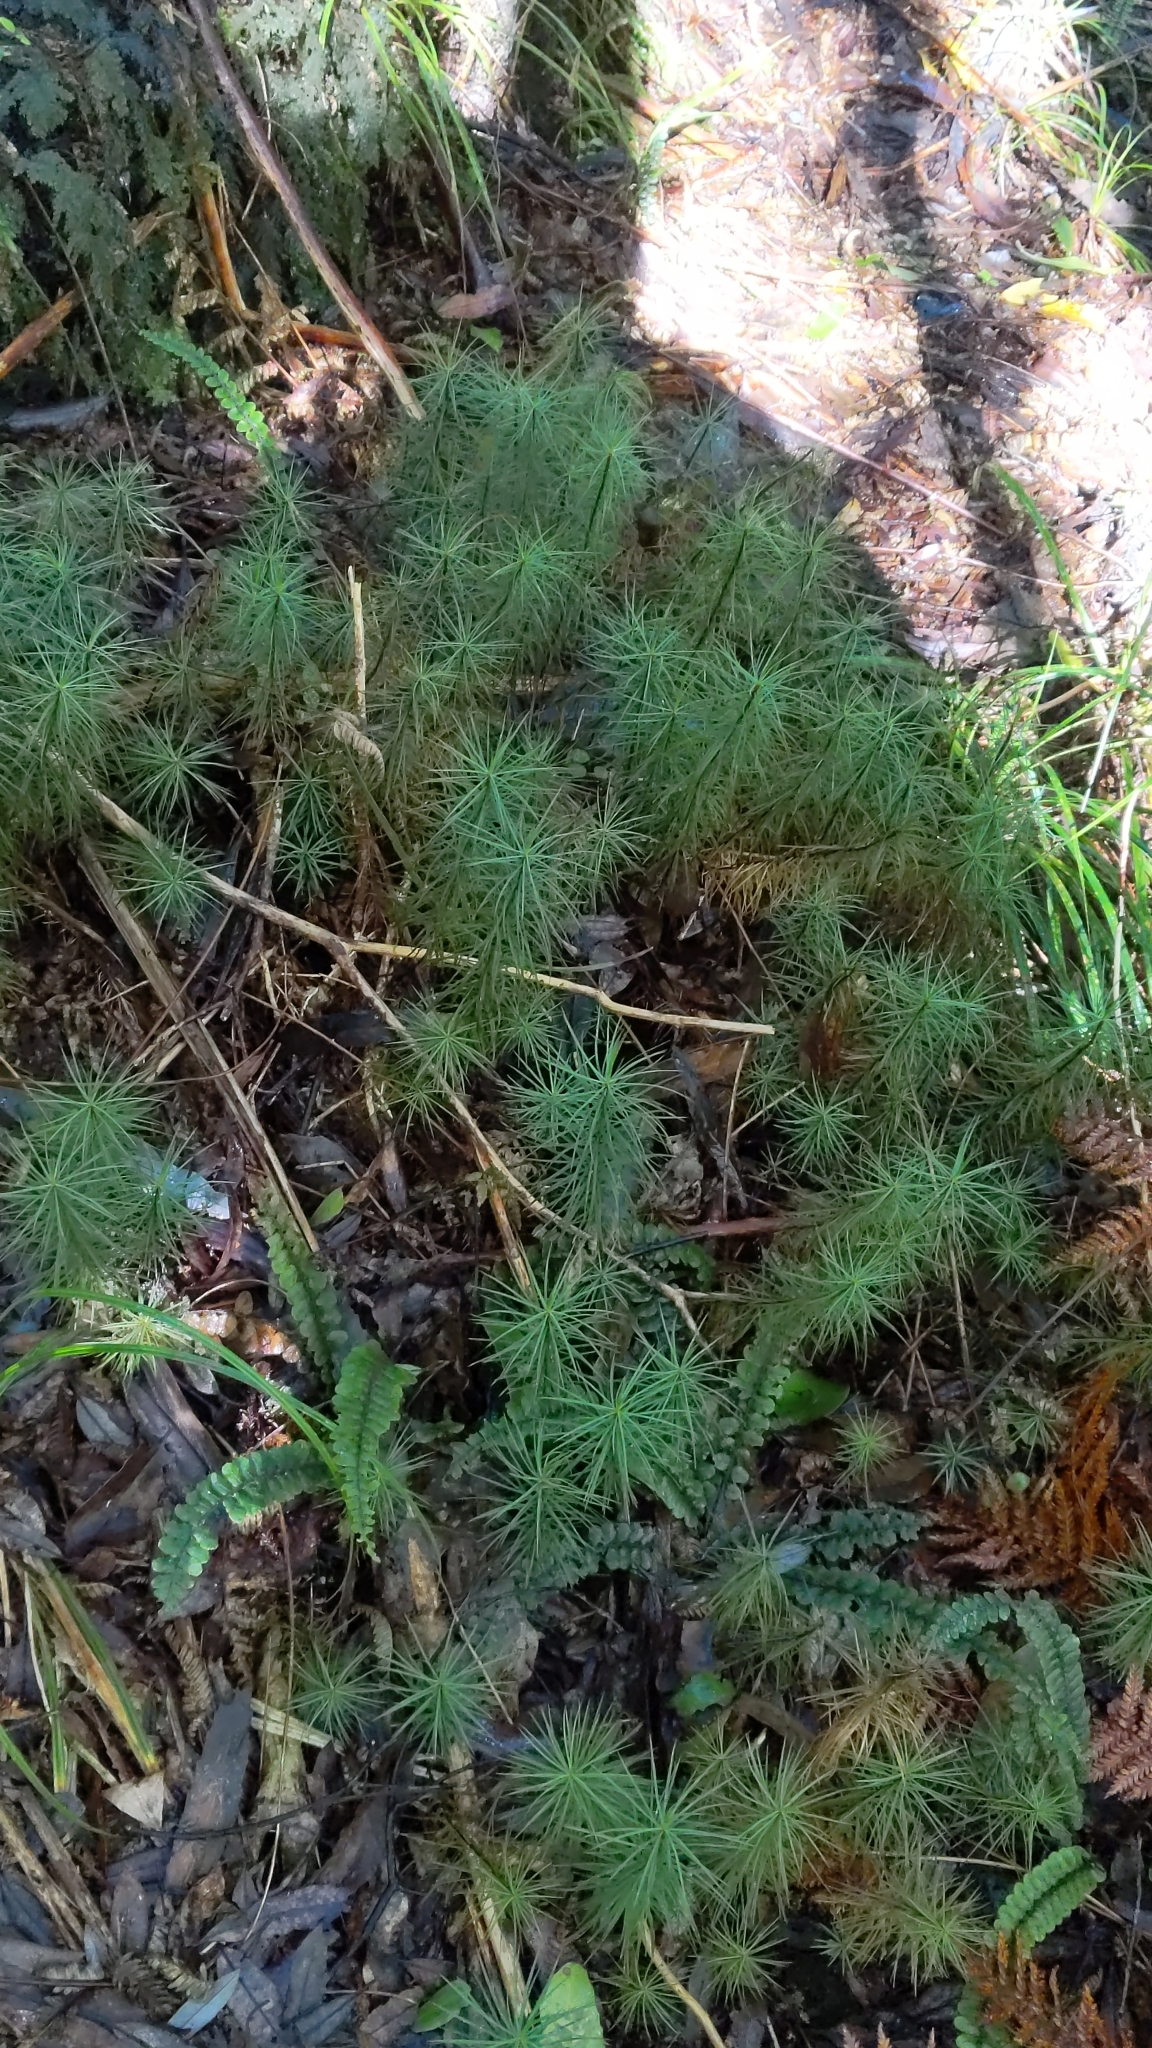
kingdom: Plantae
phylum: Bryophyta
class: Polytrichopsida
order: Polytrichales
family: Polytrichaceae
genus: Dawsonia
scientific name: Dawsonia superba
